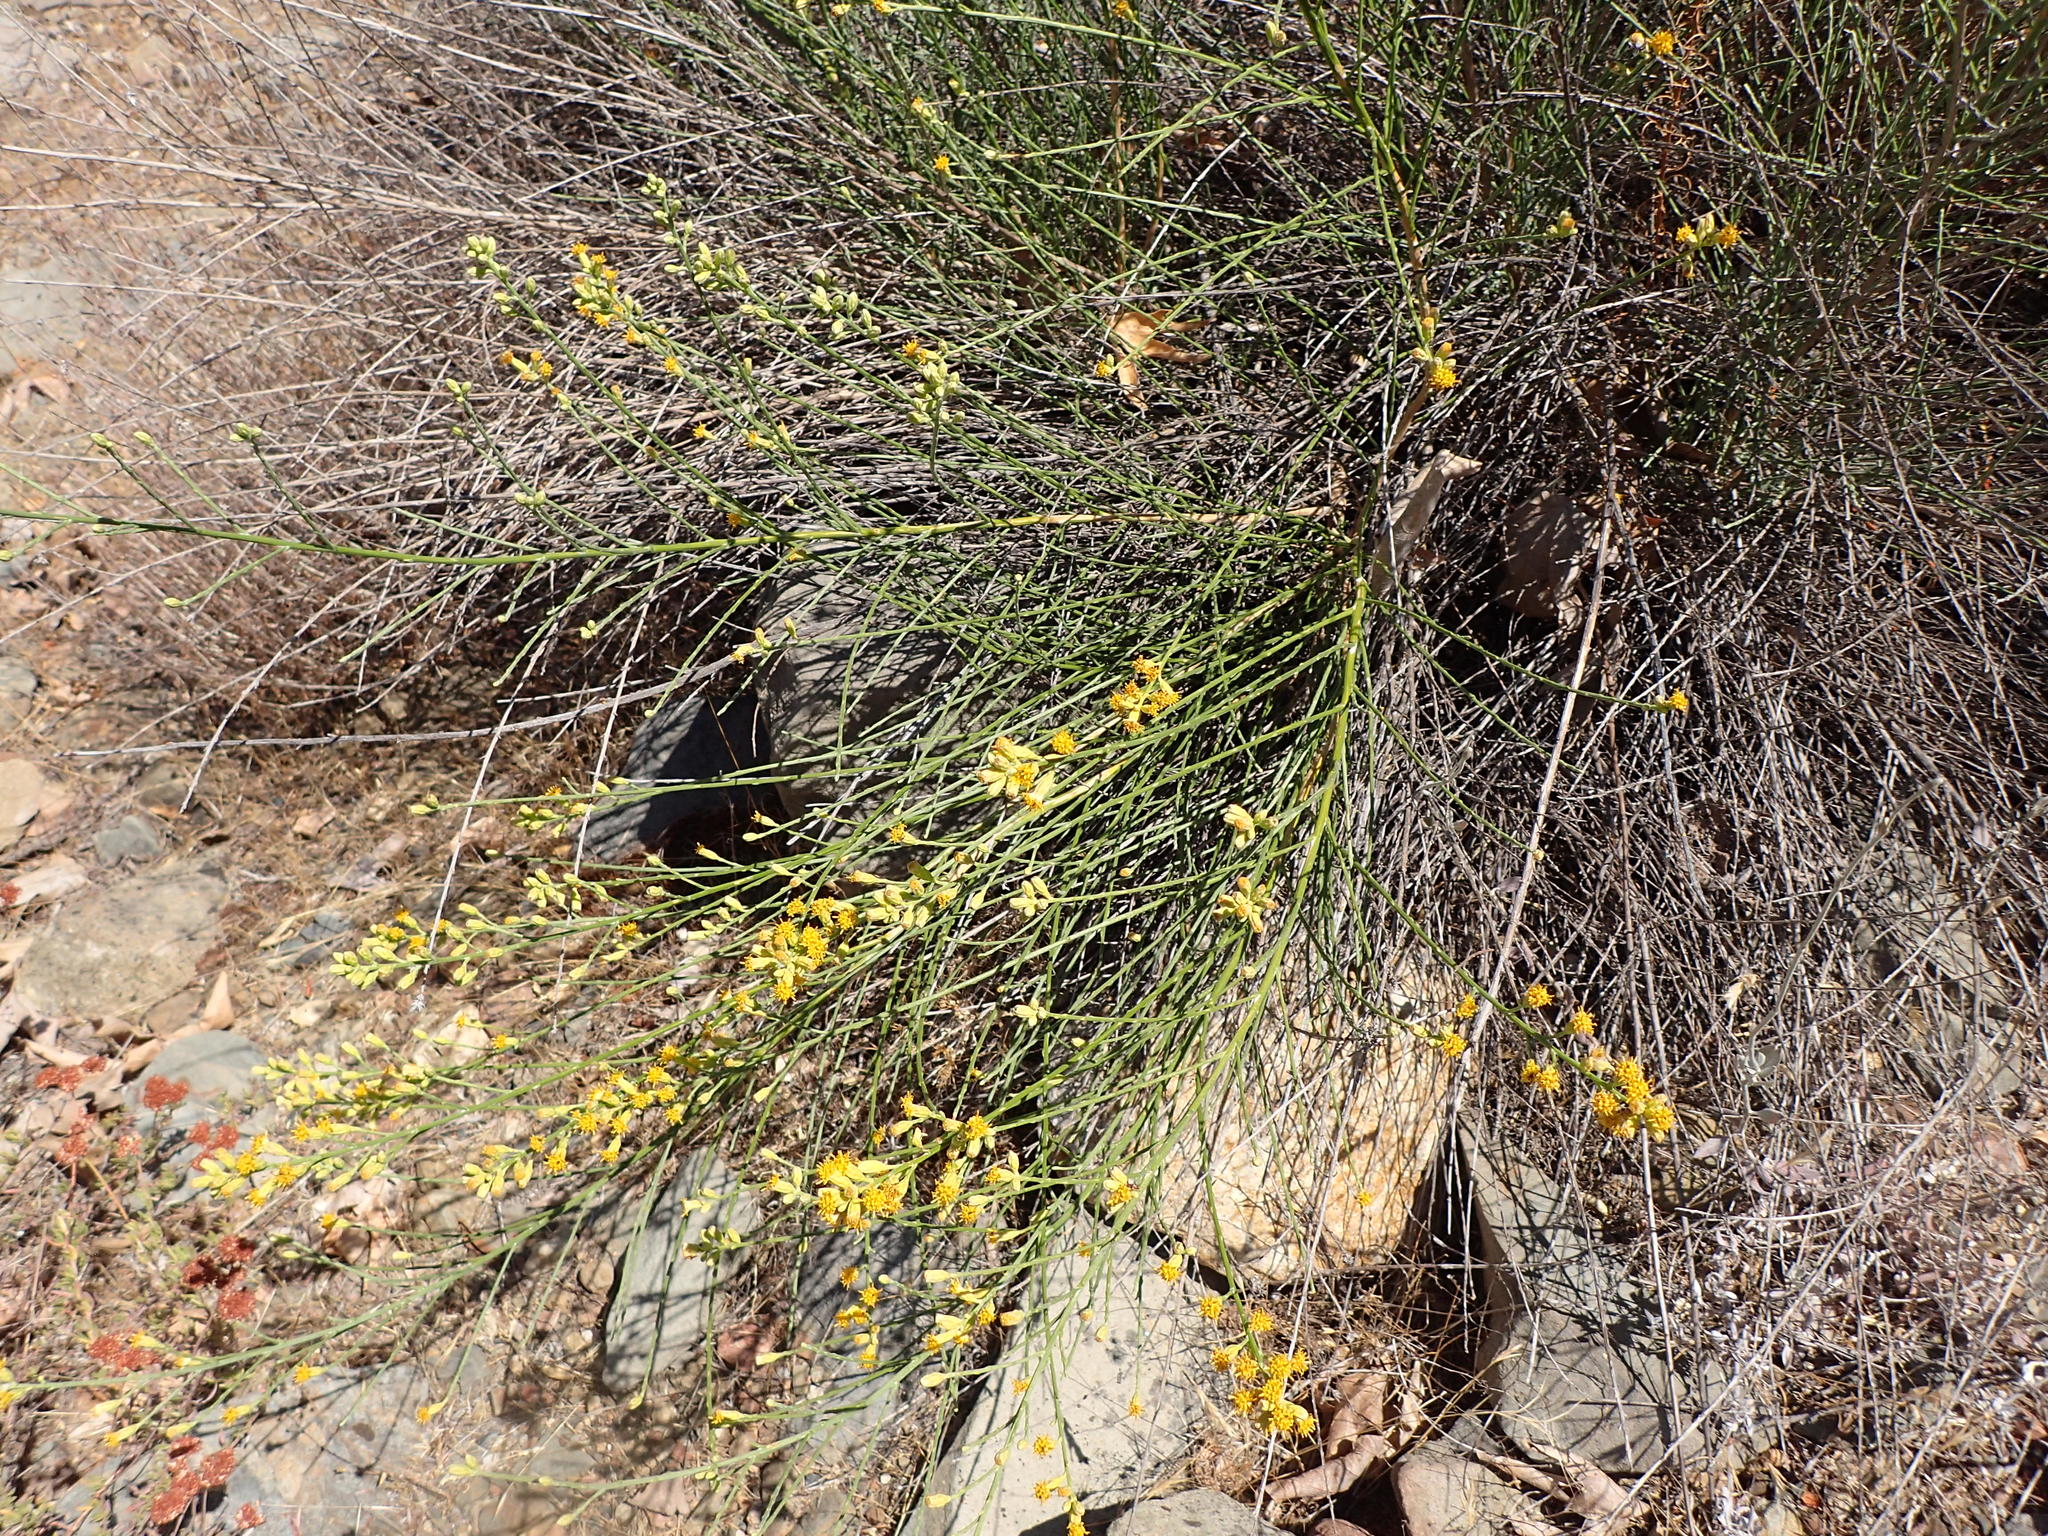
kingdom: Plantae
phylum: Tracheophyta
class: Magnoliopsida
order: Asterales
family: Asteraceae
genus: Lepidospartum
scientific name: Lepidospartum squamatum
